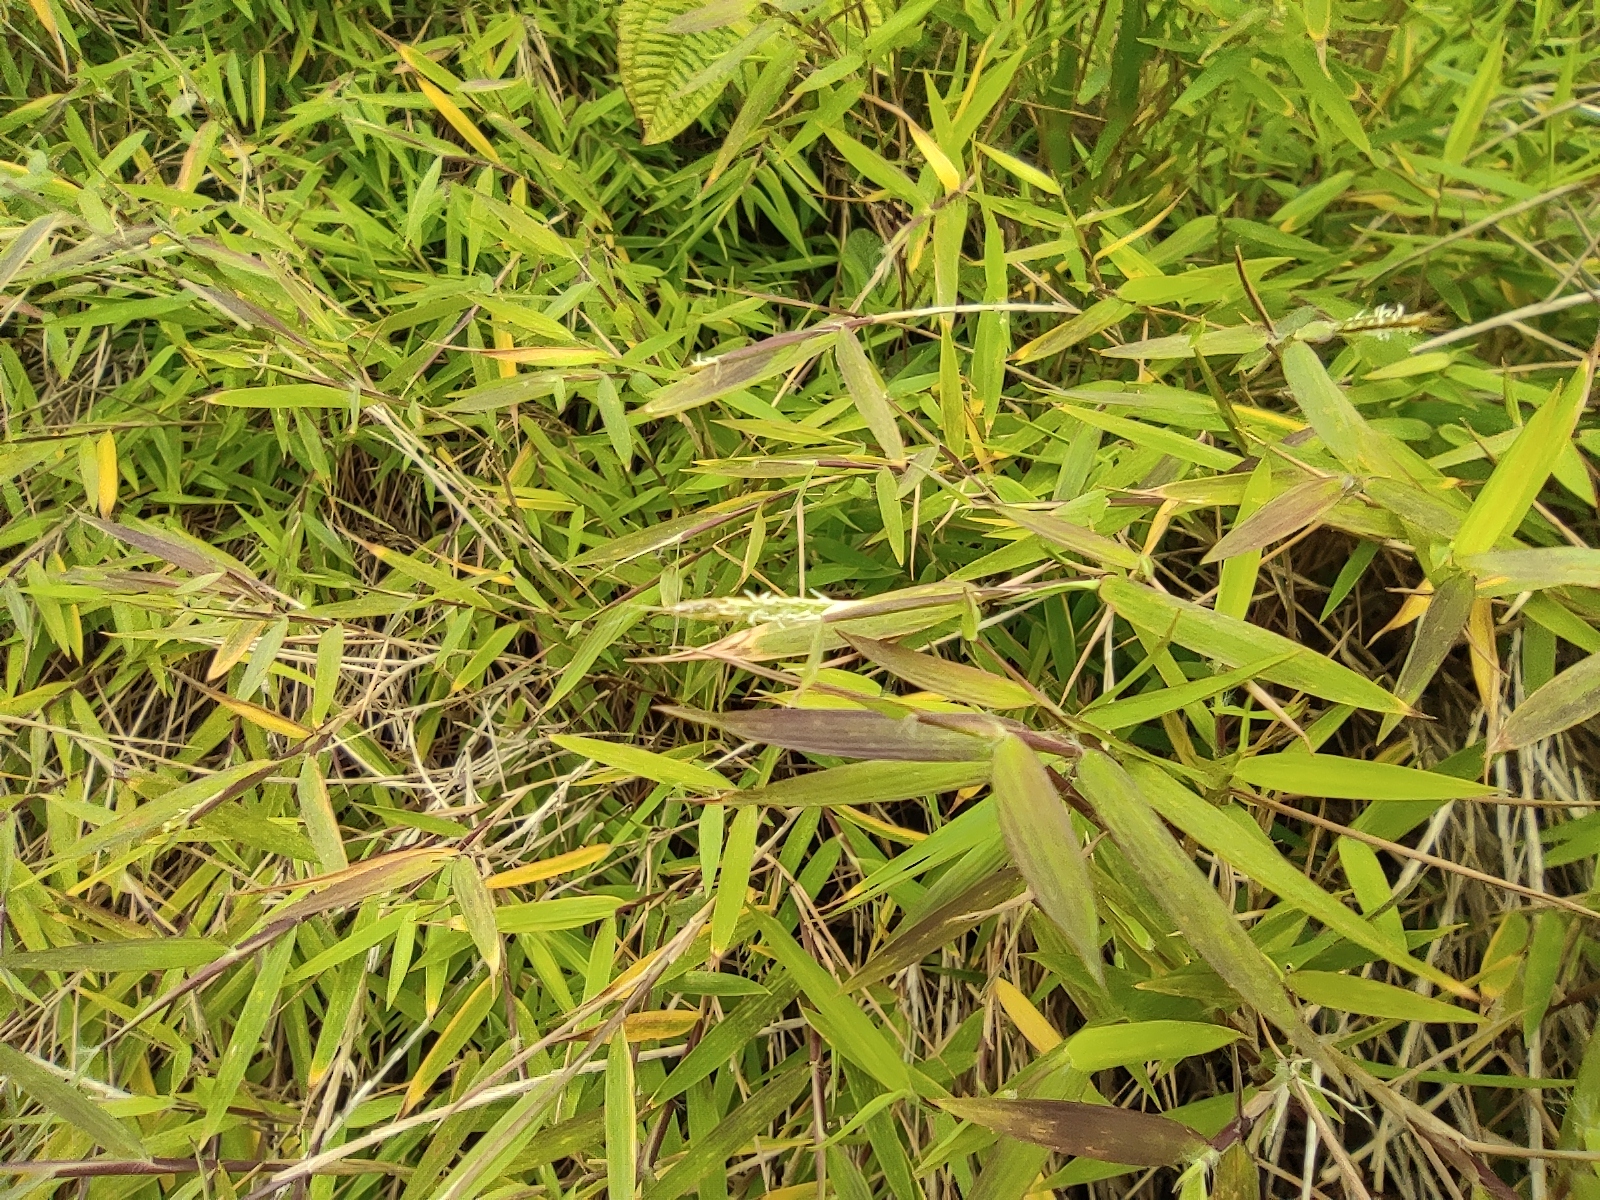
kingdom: Plantae
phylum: Tracheophyta
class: Liliopsida
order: Poales
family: Poaceae
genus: Pogonatherum
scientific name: Pogonatherum paniceum
